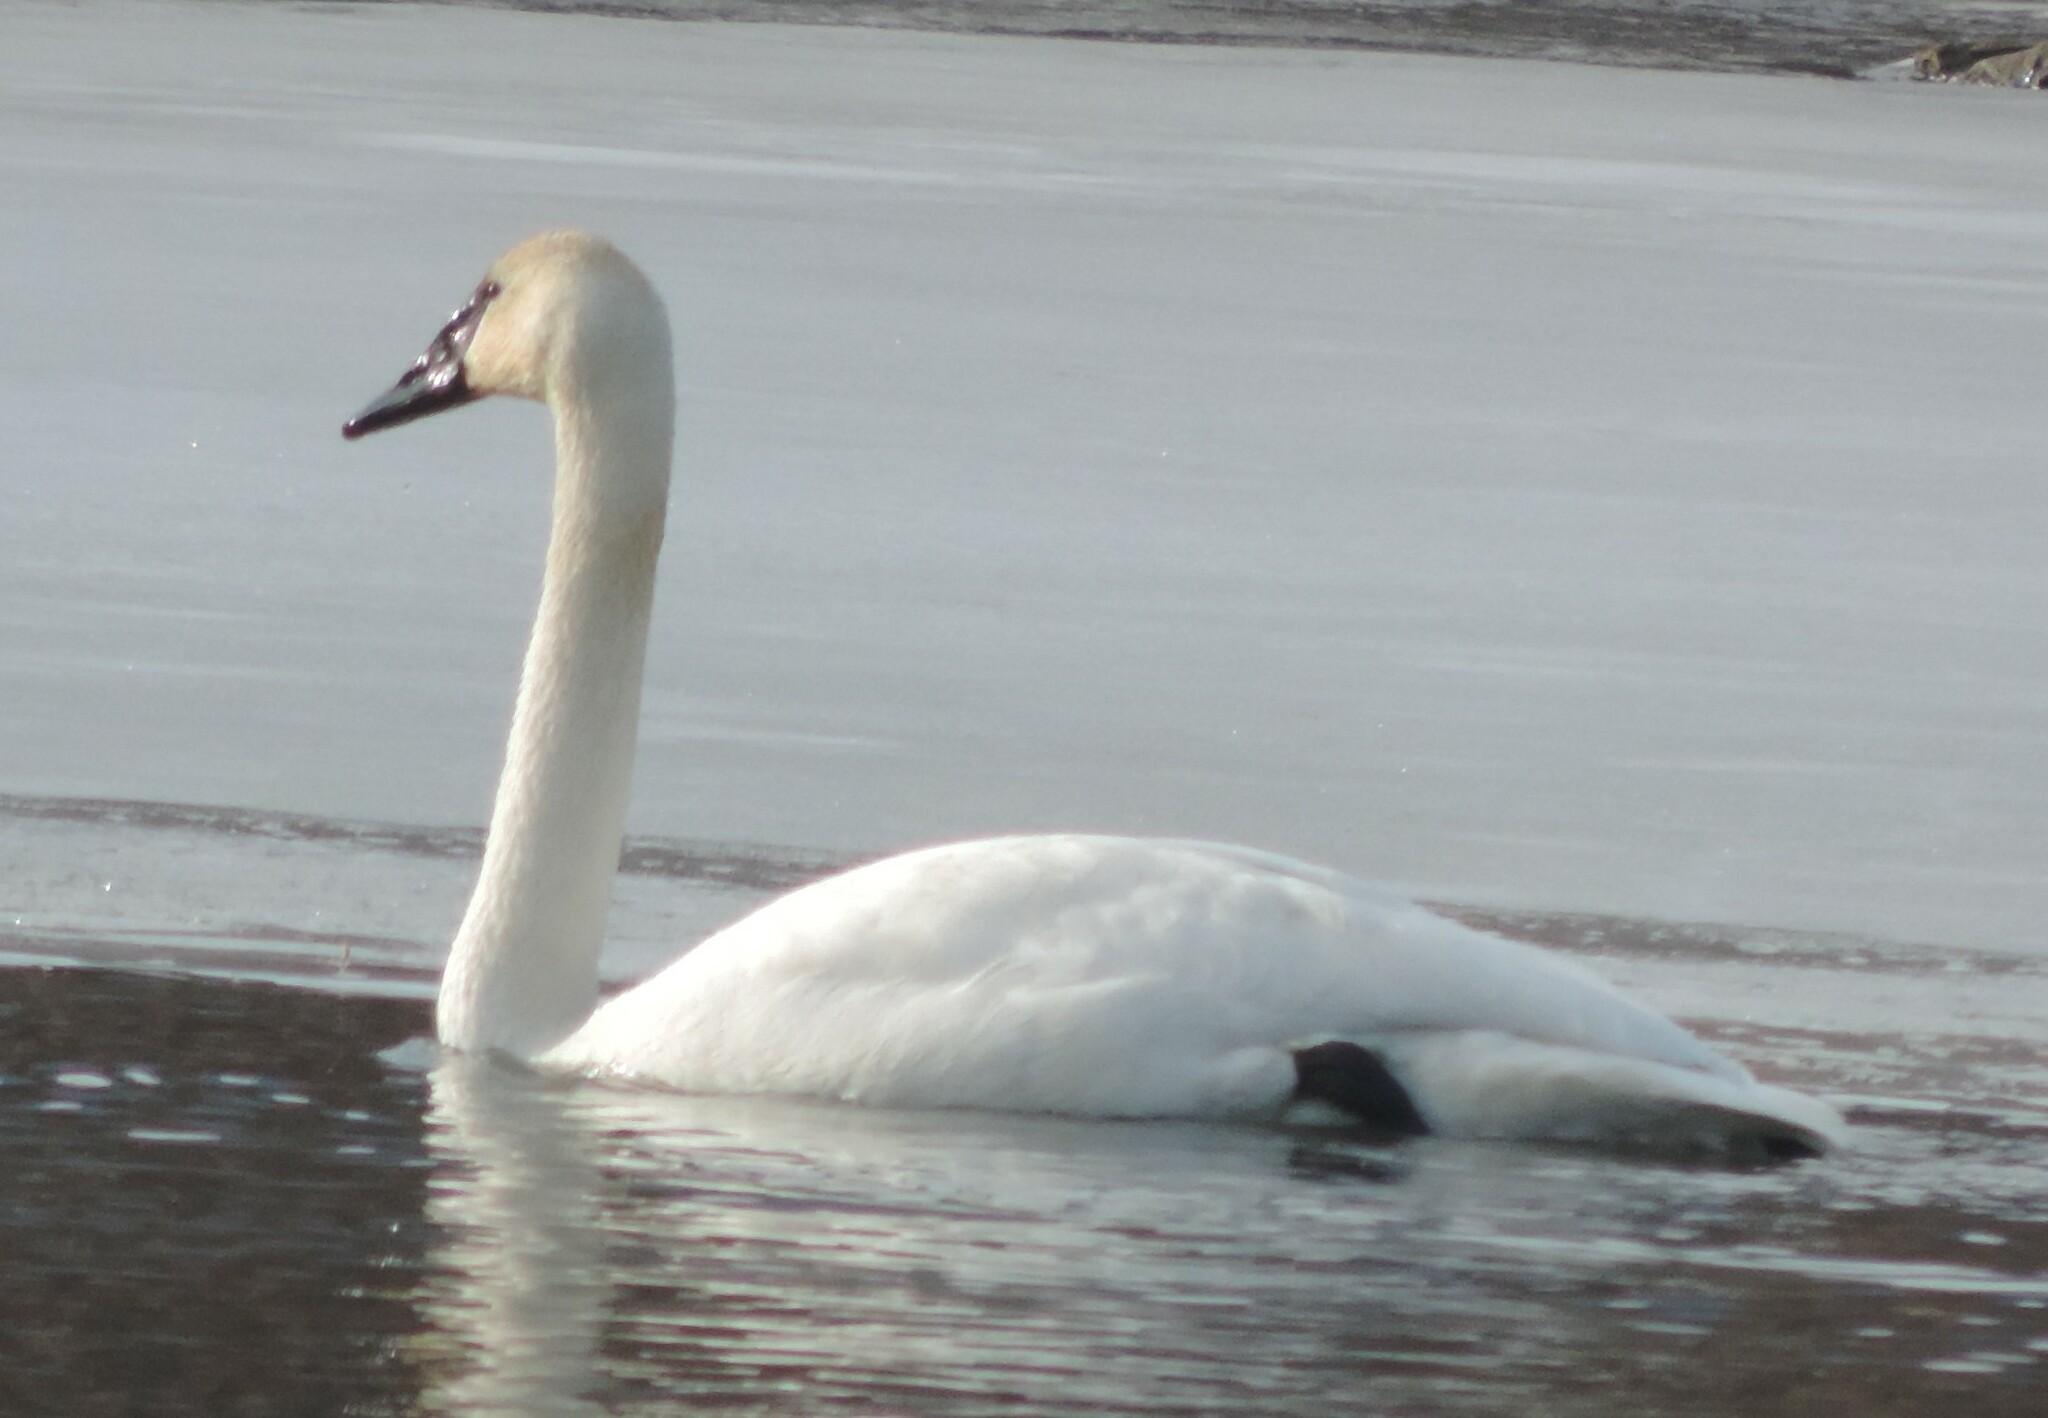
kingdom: Animalia
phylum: Chordata
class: Aves
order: Anseriformes
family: Anatidae
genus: Cygnus
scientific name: Cygnus buccinator
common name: Trumpeter swan
